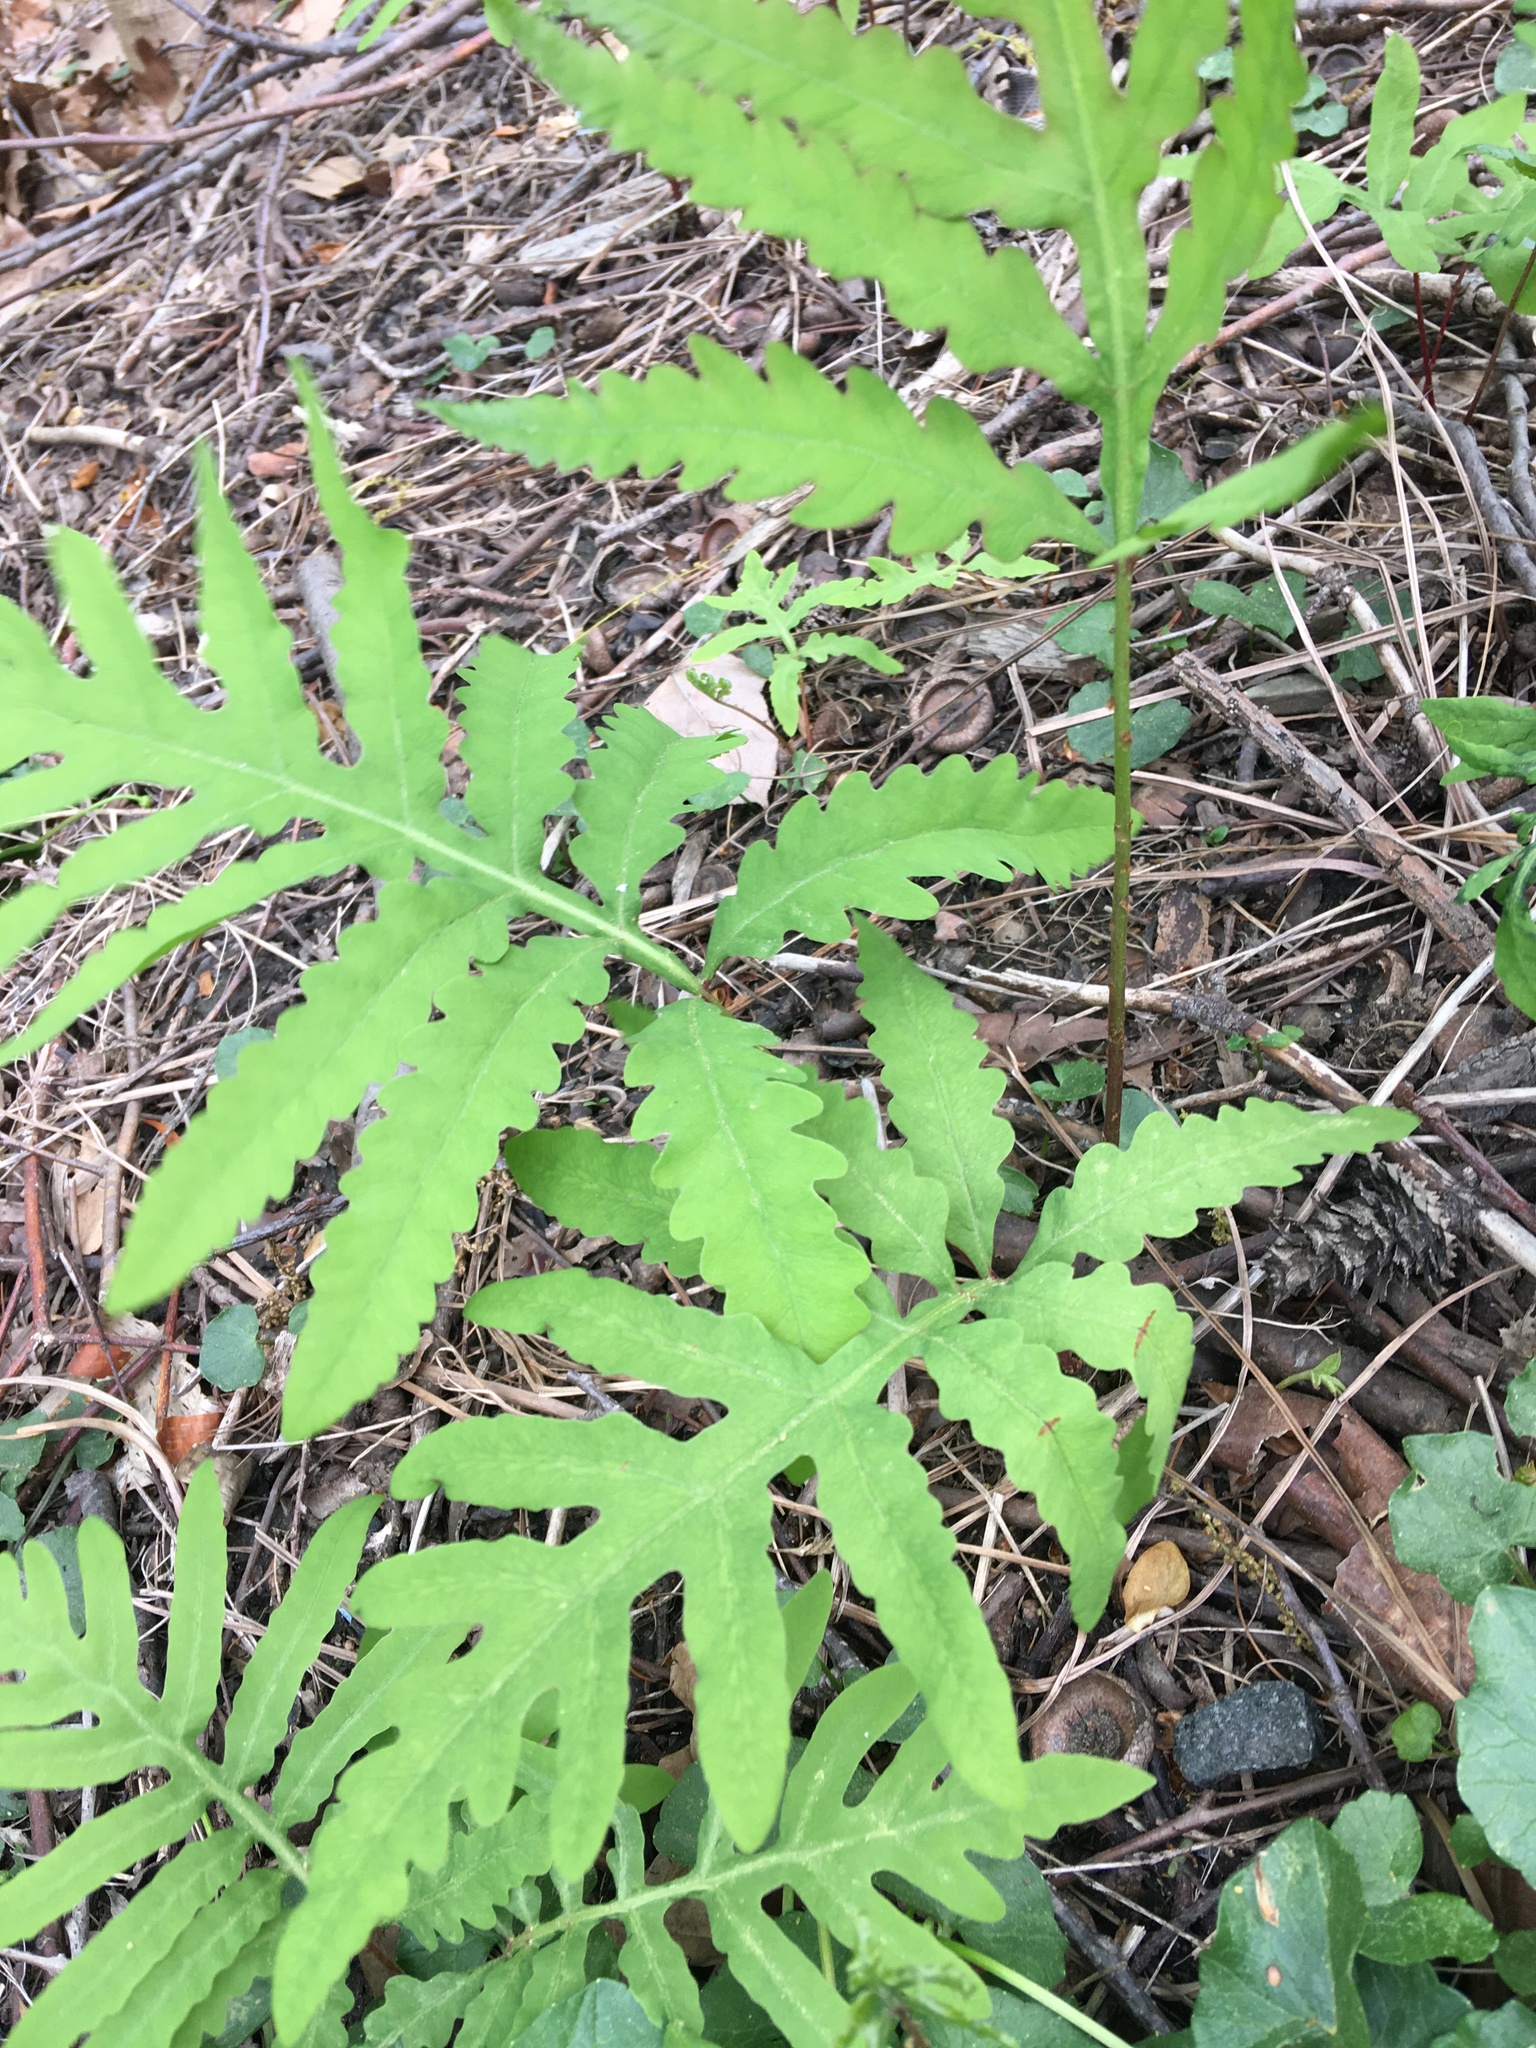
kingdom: Plantae
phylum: Tracheophyta
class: Polypodiopsida
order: Polypodiales
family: Onocleaceae
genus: Onoclea
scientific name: Onoclea sensibilis
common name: Sensitive fern
